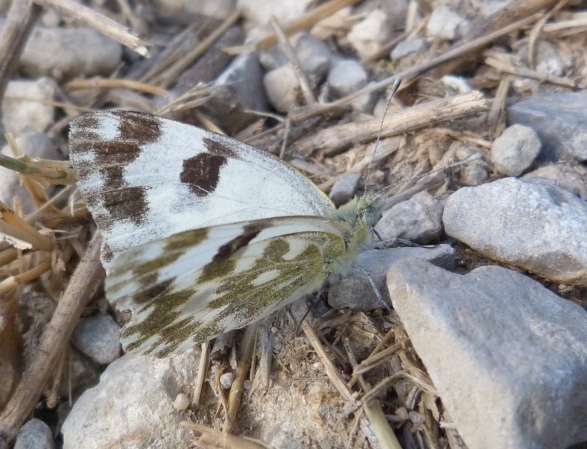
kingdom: Animalia
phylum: Arthropoda
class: Insecta
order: Lepidoptera
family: Pieridae
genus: Pontia
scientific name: Pontia daplidice
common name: Bath white
